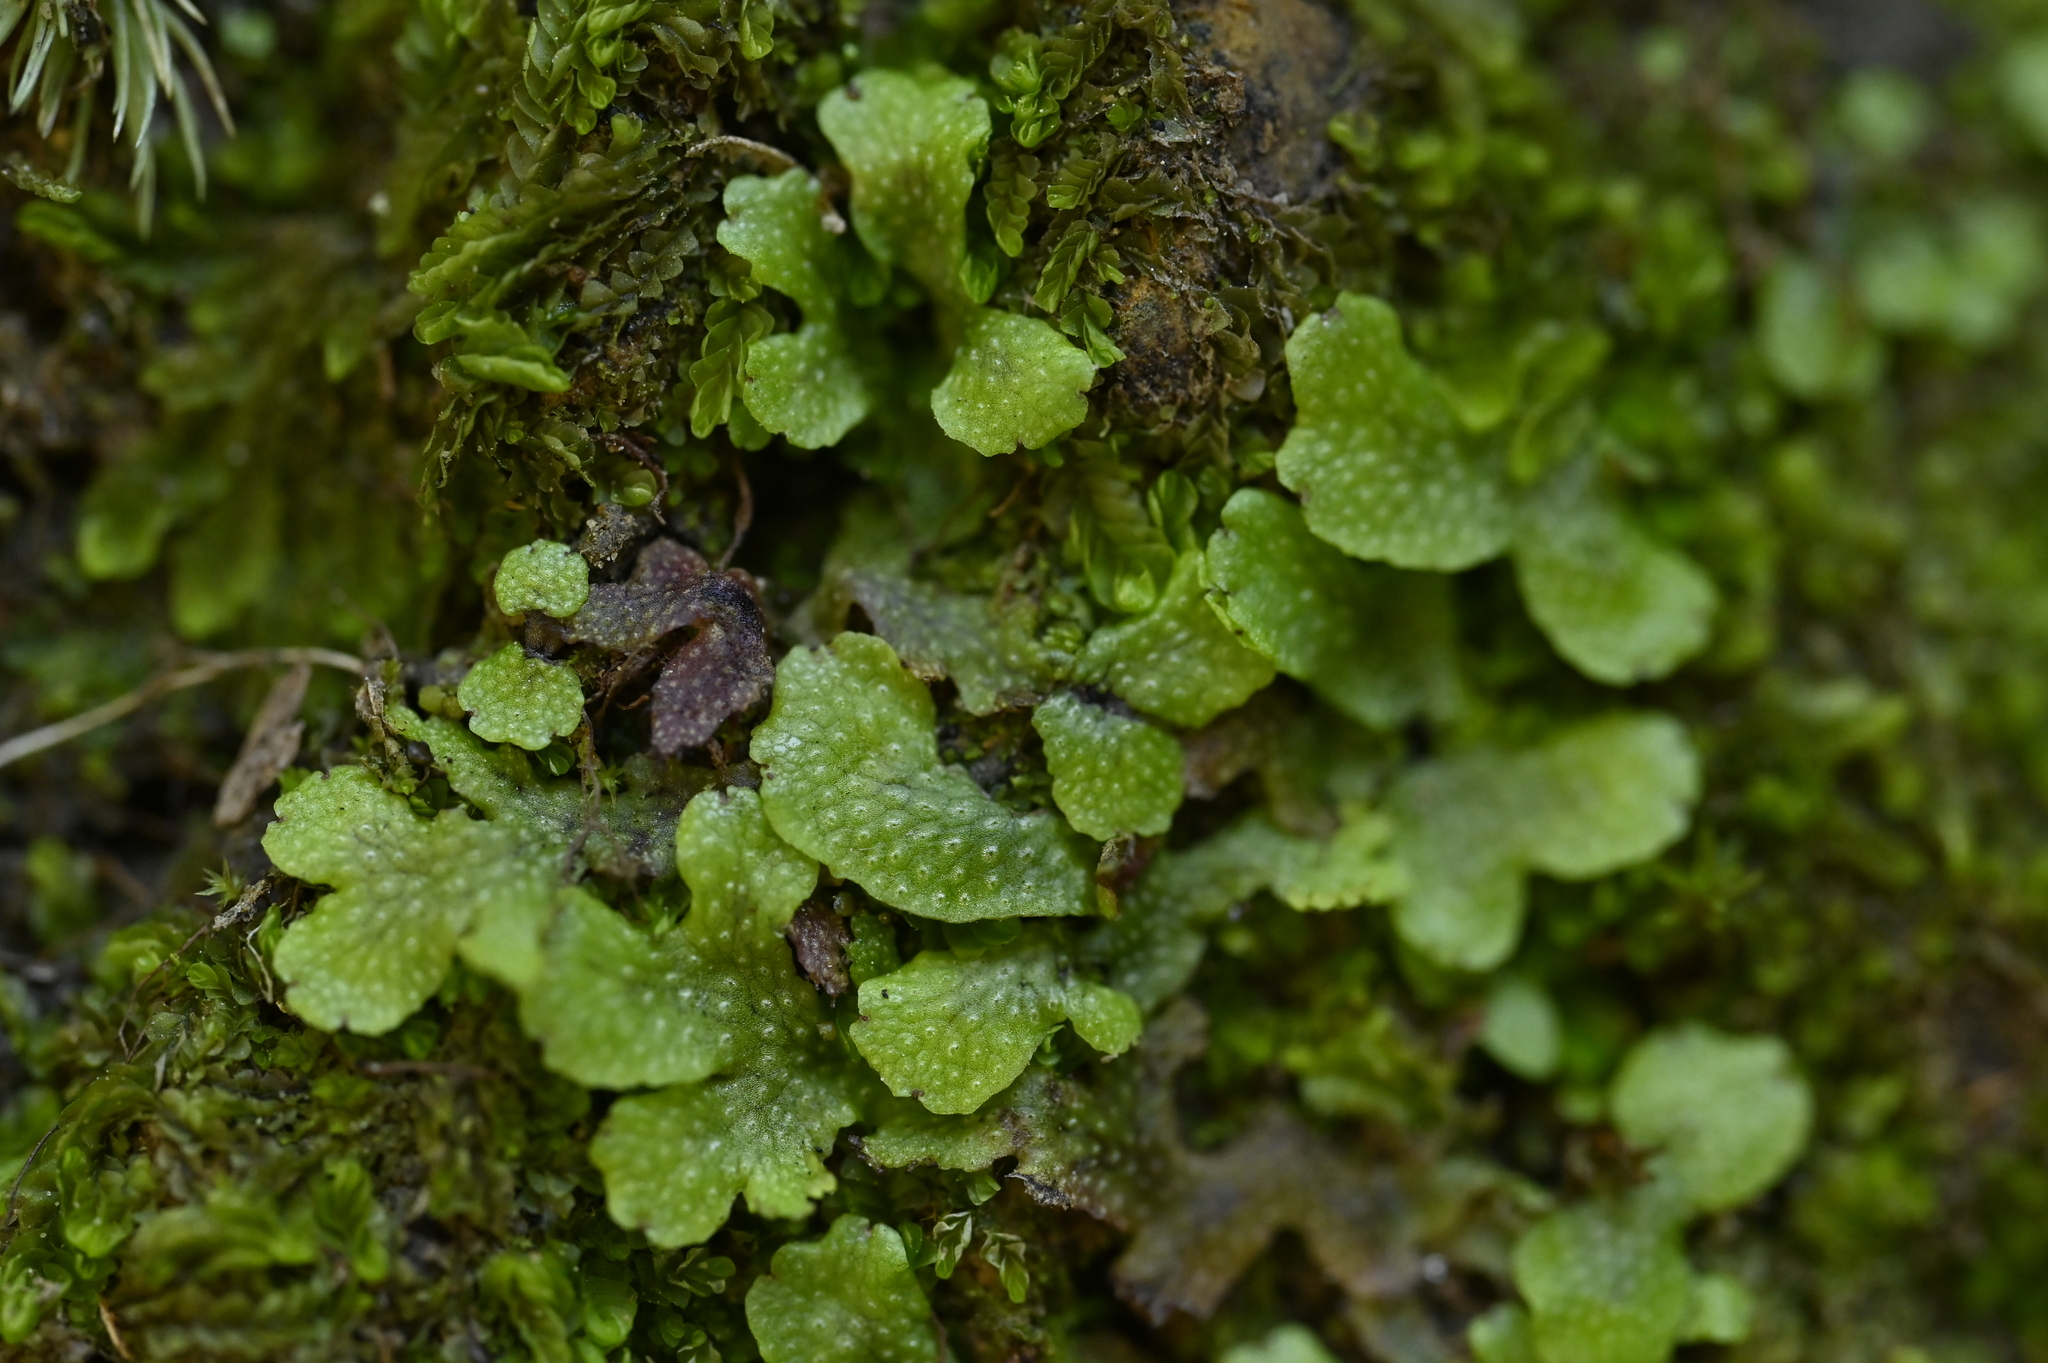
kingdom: Plantae
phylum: Marchantiophyta
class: Marchantiopsida
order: Marchantiales
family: Conocephalaceae
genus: Sandea
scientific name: Sandea japonica
